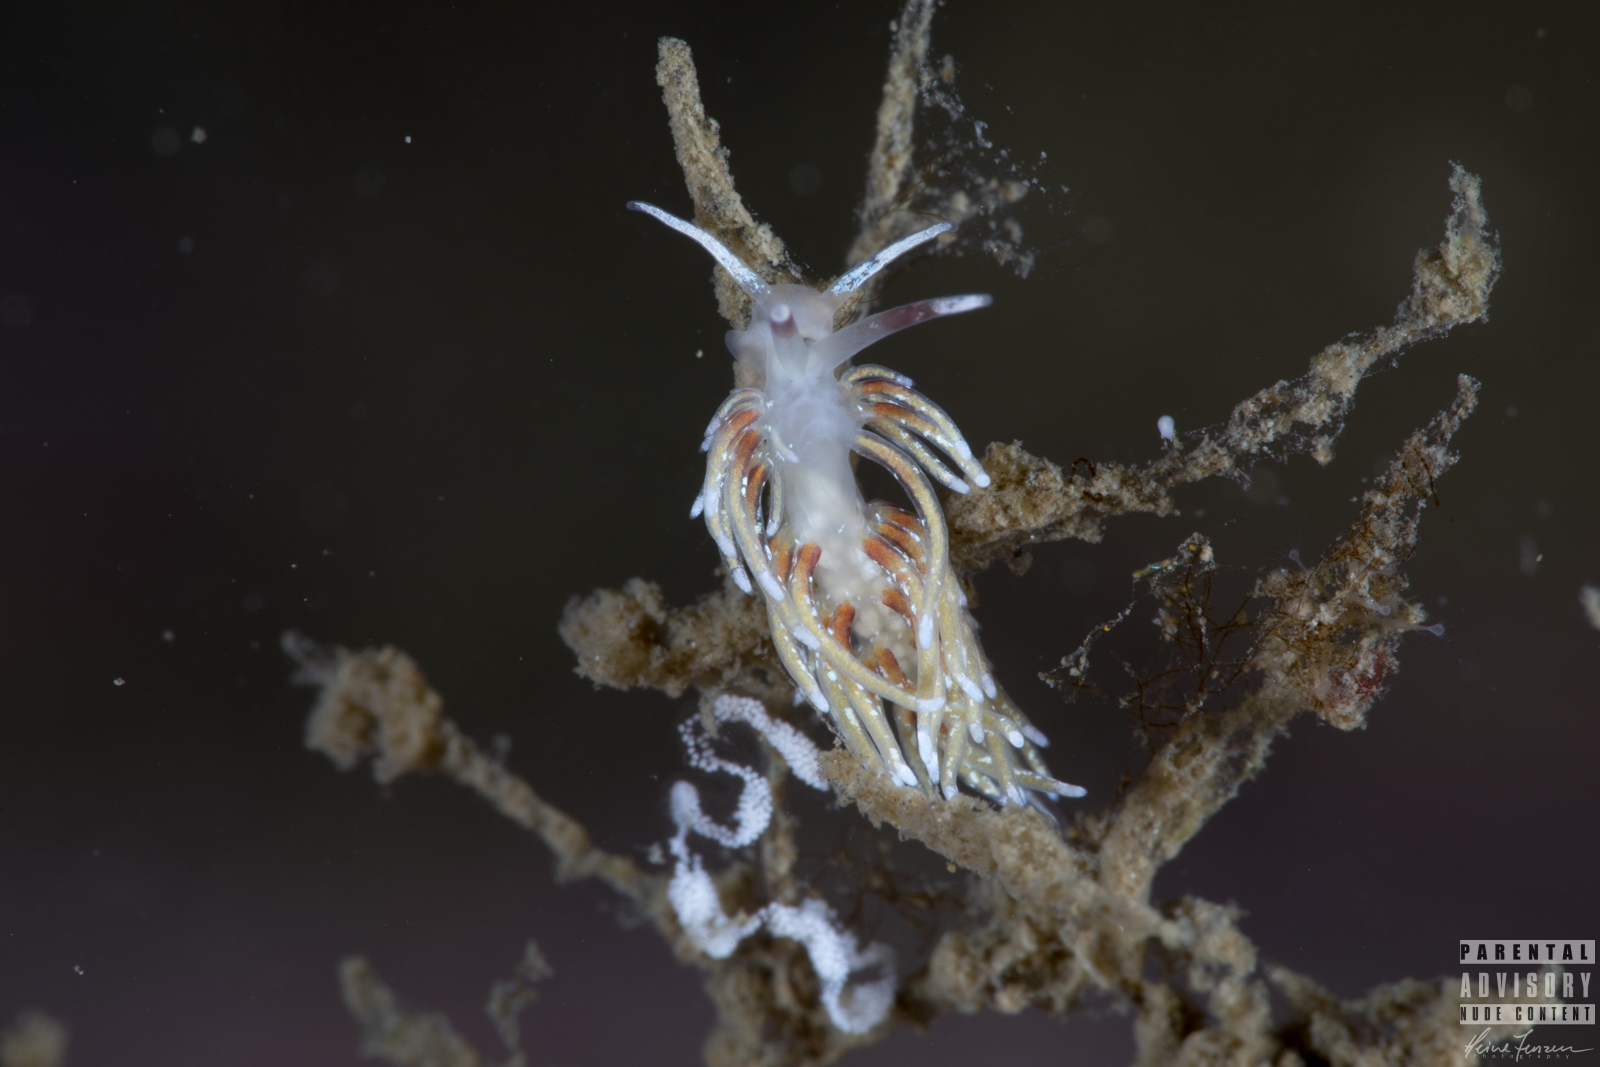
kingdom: Animalia
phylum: Mollusca
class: Gastropoda
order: Nudibranchia
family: Trinchesiidae
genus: Rubramoena
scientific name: Rubramoena rubescens
